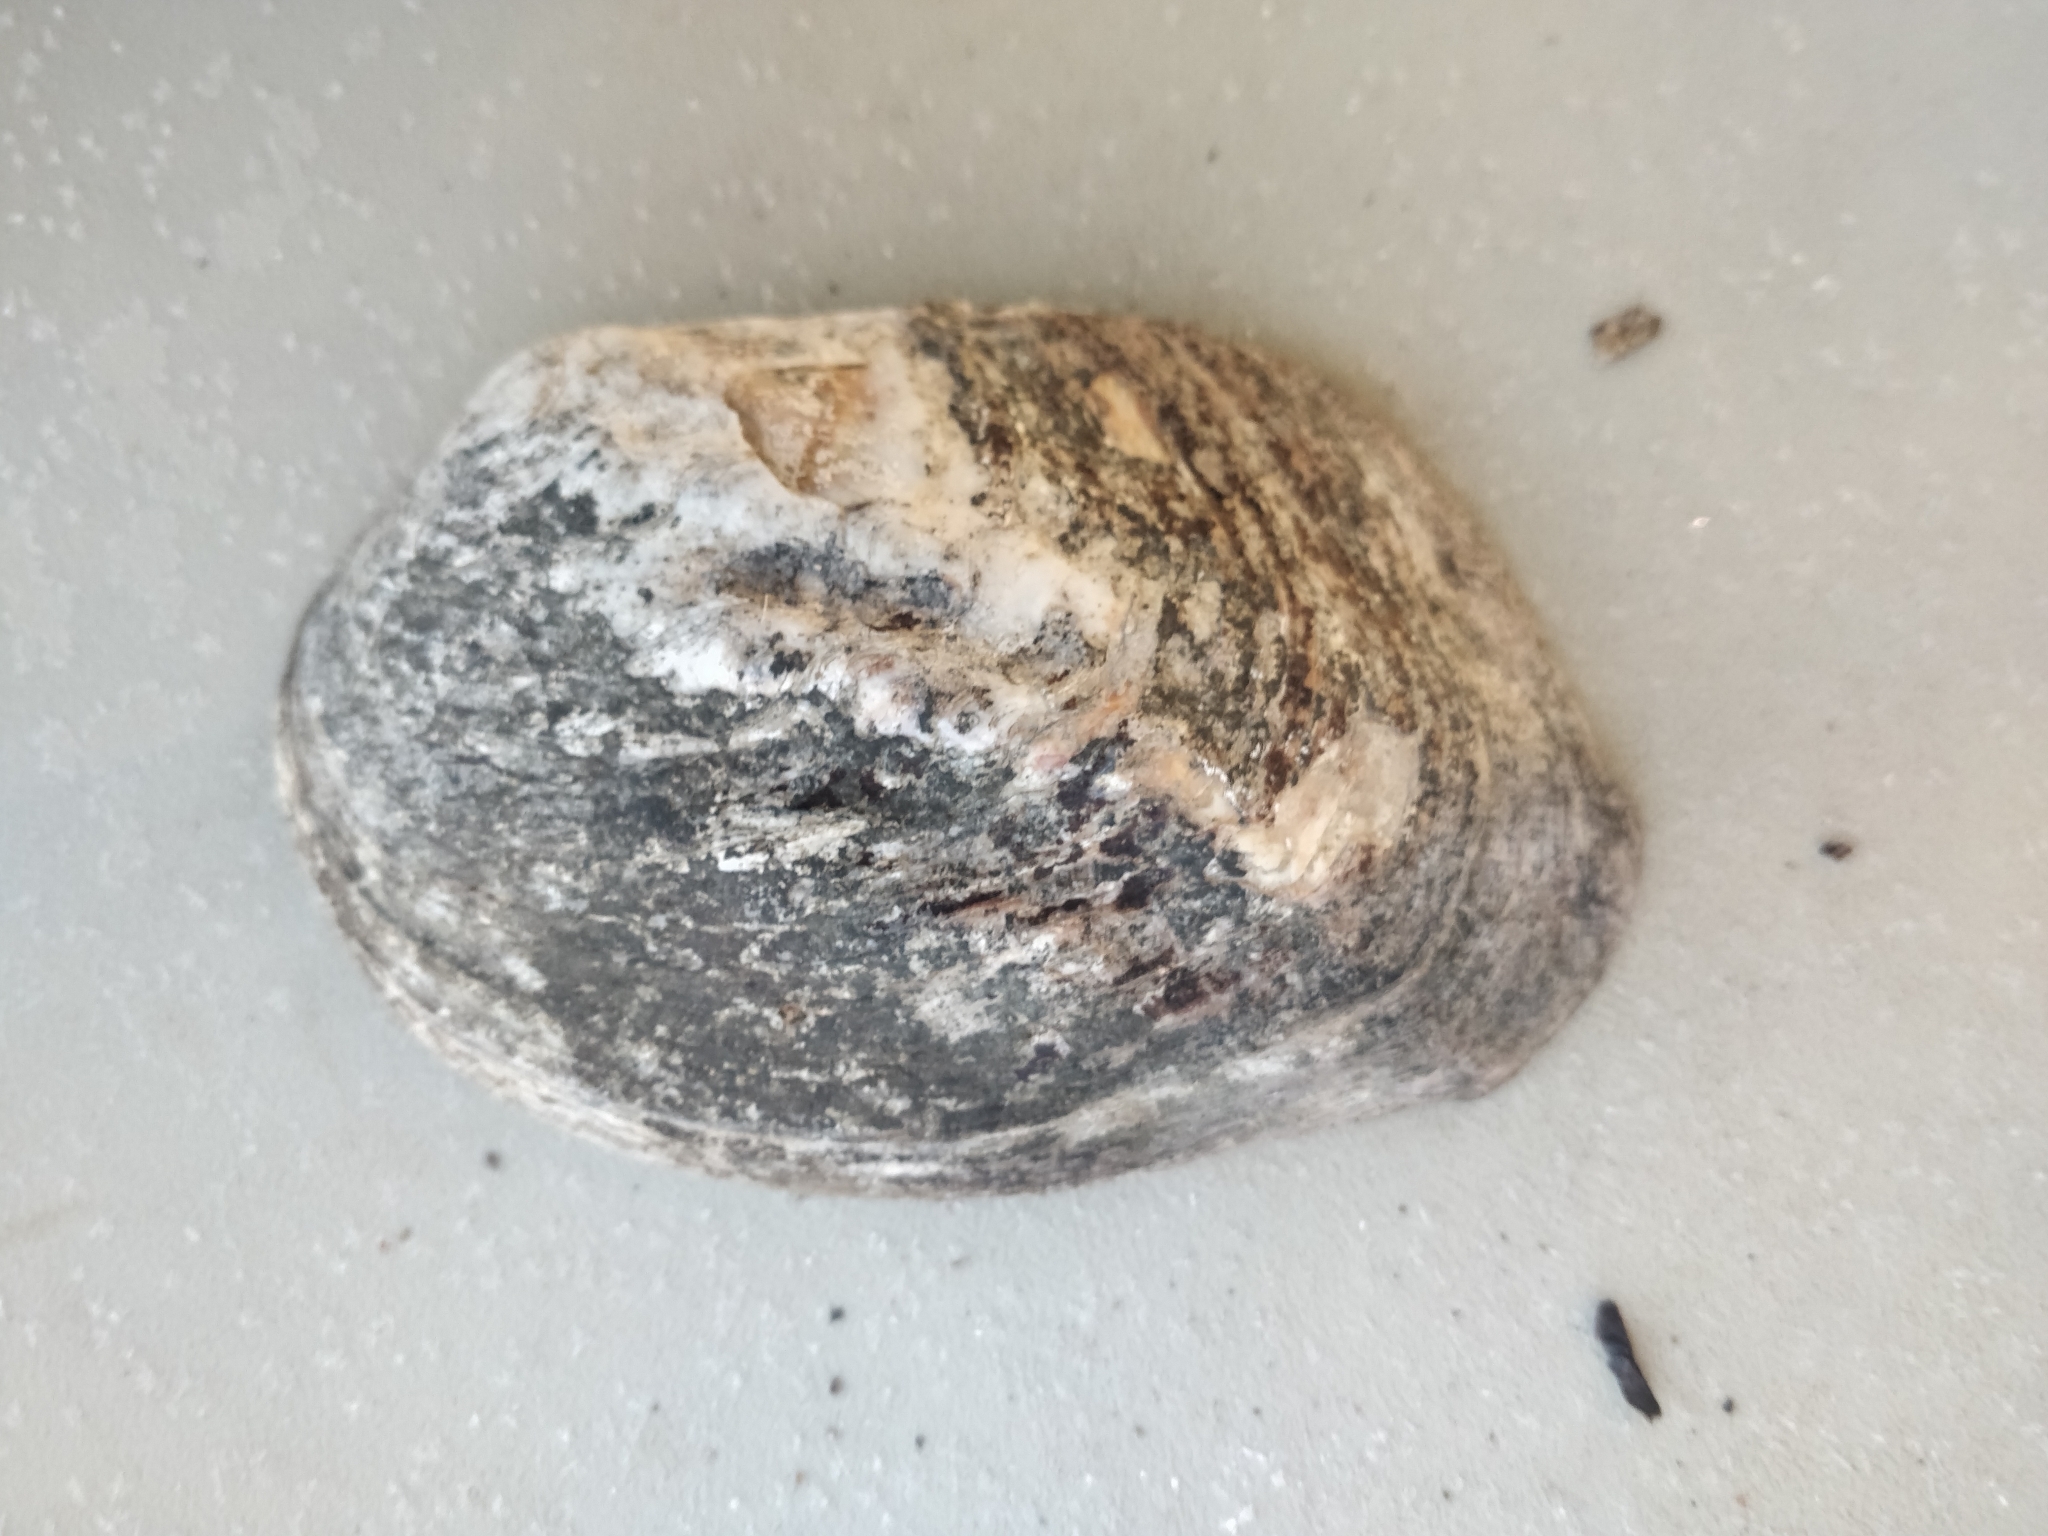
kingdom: Animalia
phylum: Mollusca
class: Bivalvia
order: Unionida
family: Unionidae
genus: Amblema
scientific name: Amblema plicata
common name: Threeridge
